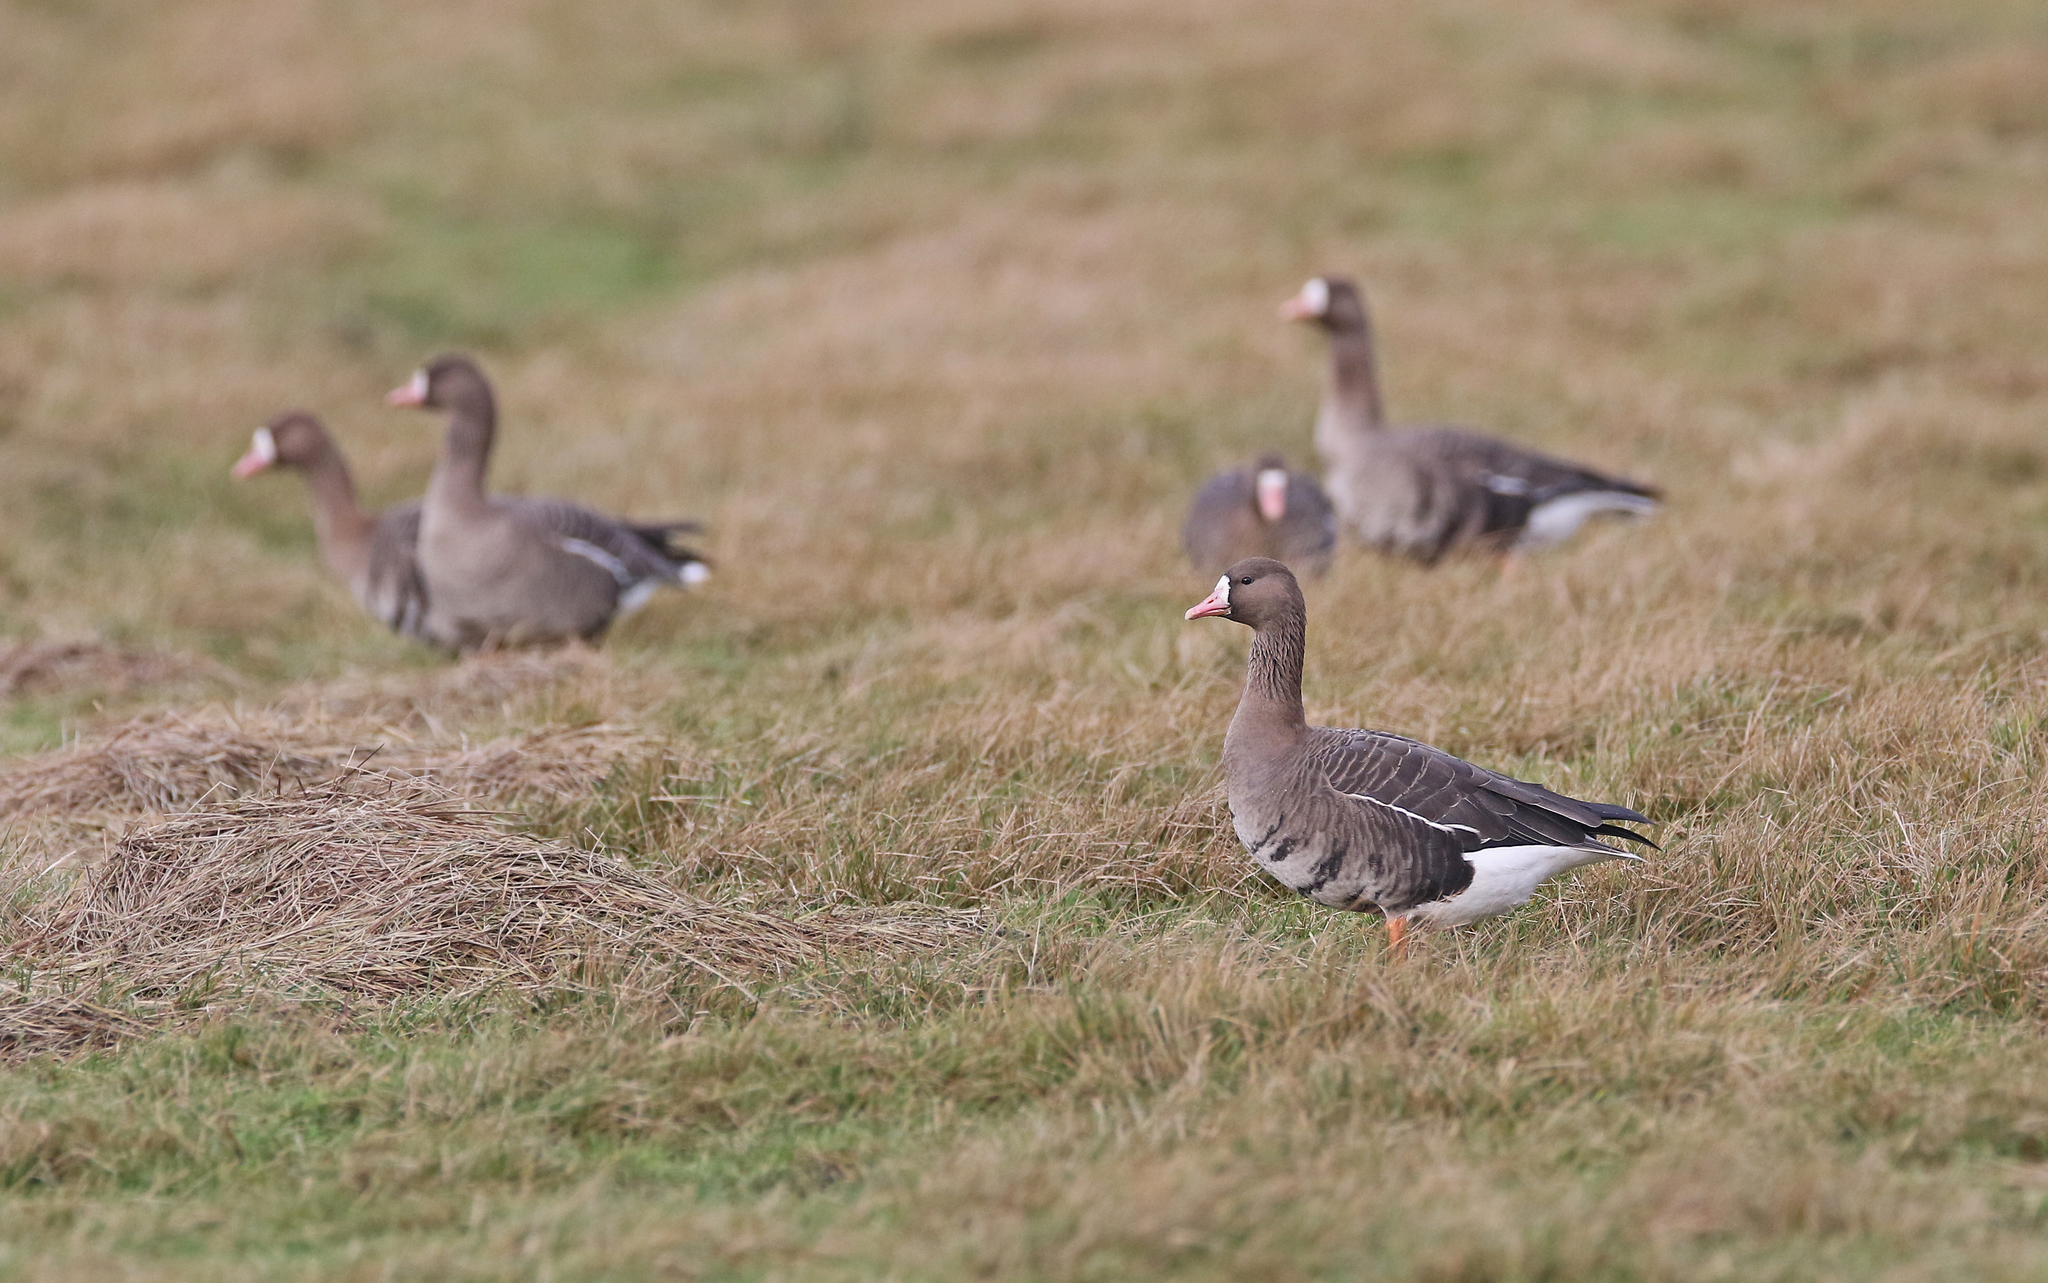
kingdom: Animalia
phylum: Chordata
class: Aves
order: Anseriformes
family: Anatidae
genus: Anser
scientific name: Anser albifrons
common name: Greater white-fronted goose
